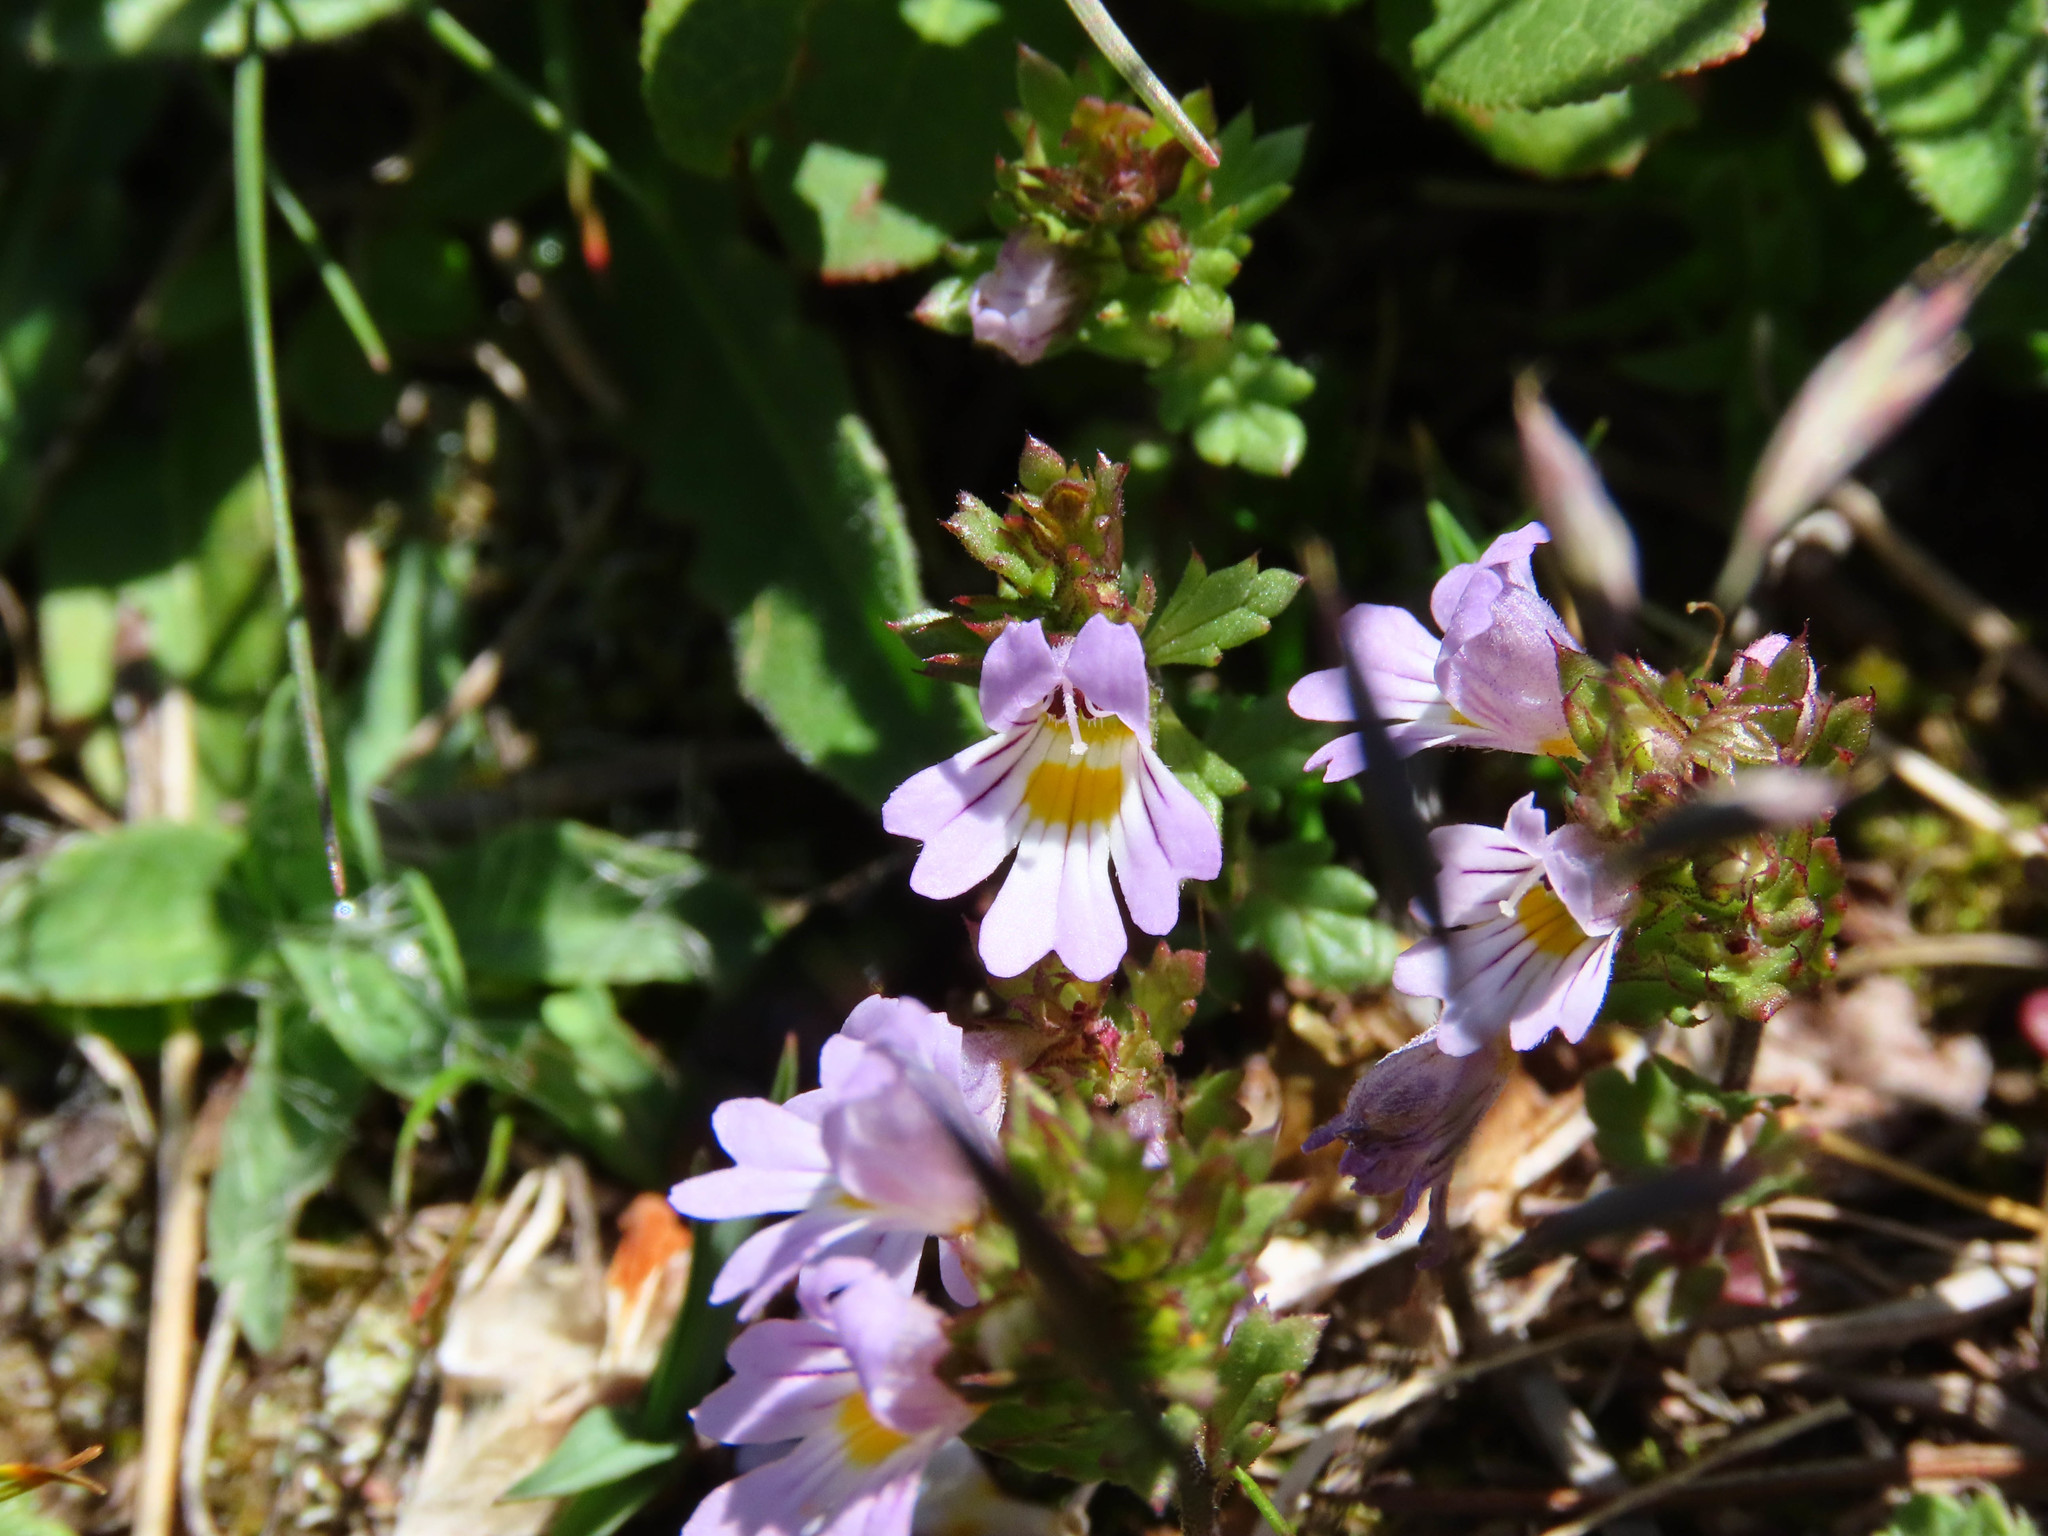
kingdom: Plantae
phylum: Tracheophyta
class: Magnoliopsida
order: Lamiales
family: Orobanchaceae
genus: Euphrasia
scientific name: Euphrasia liburnica
